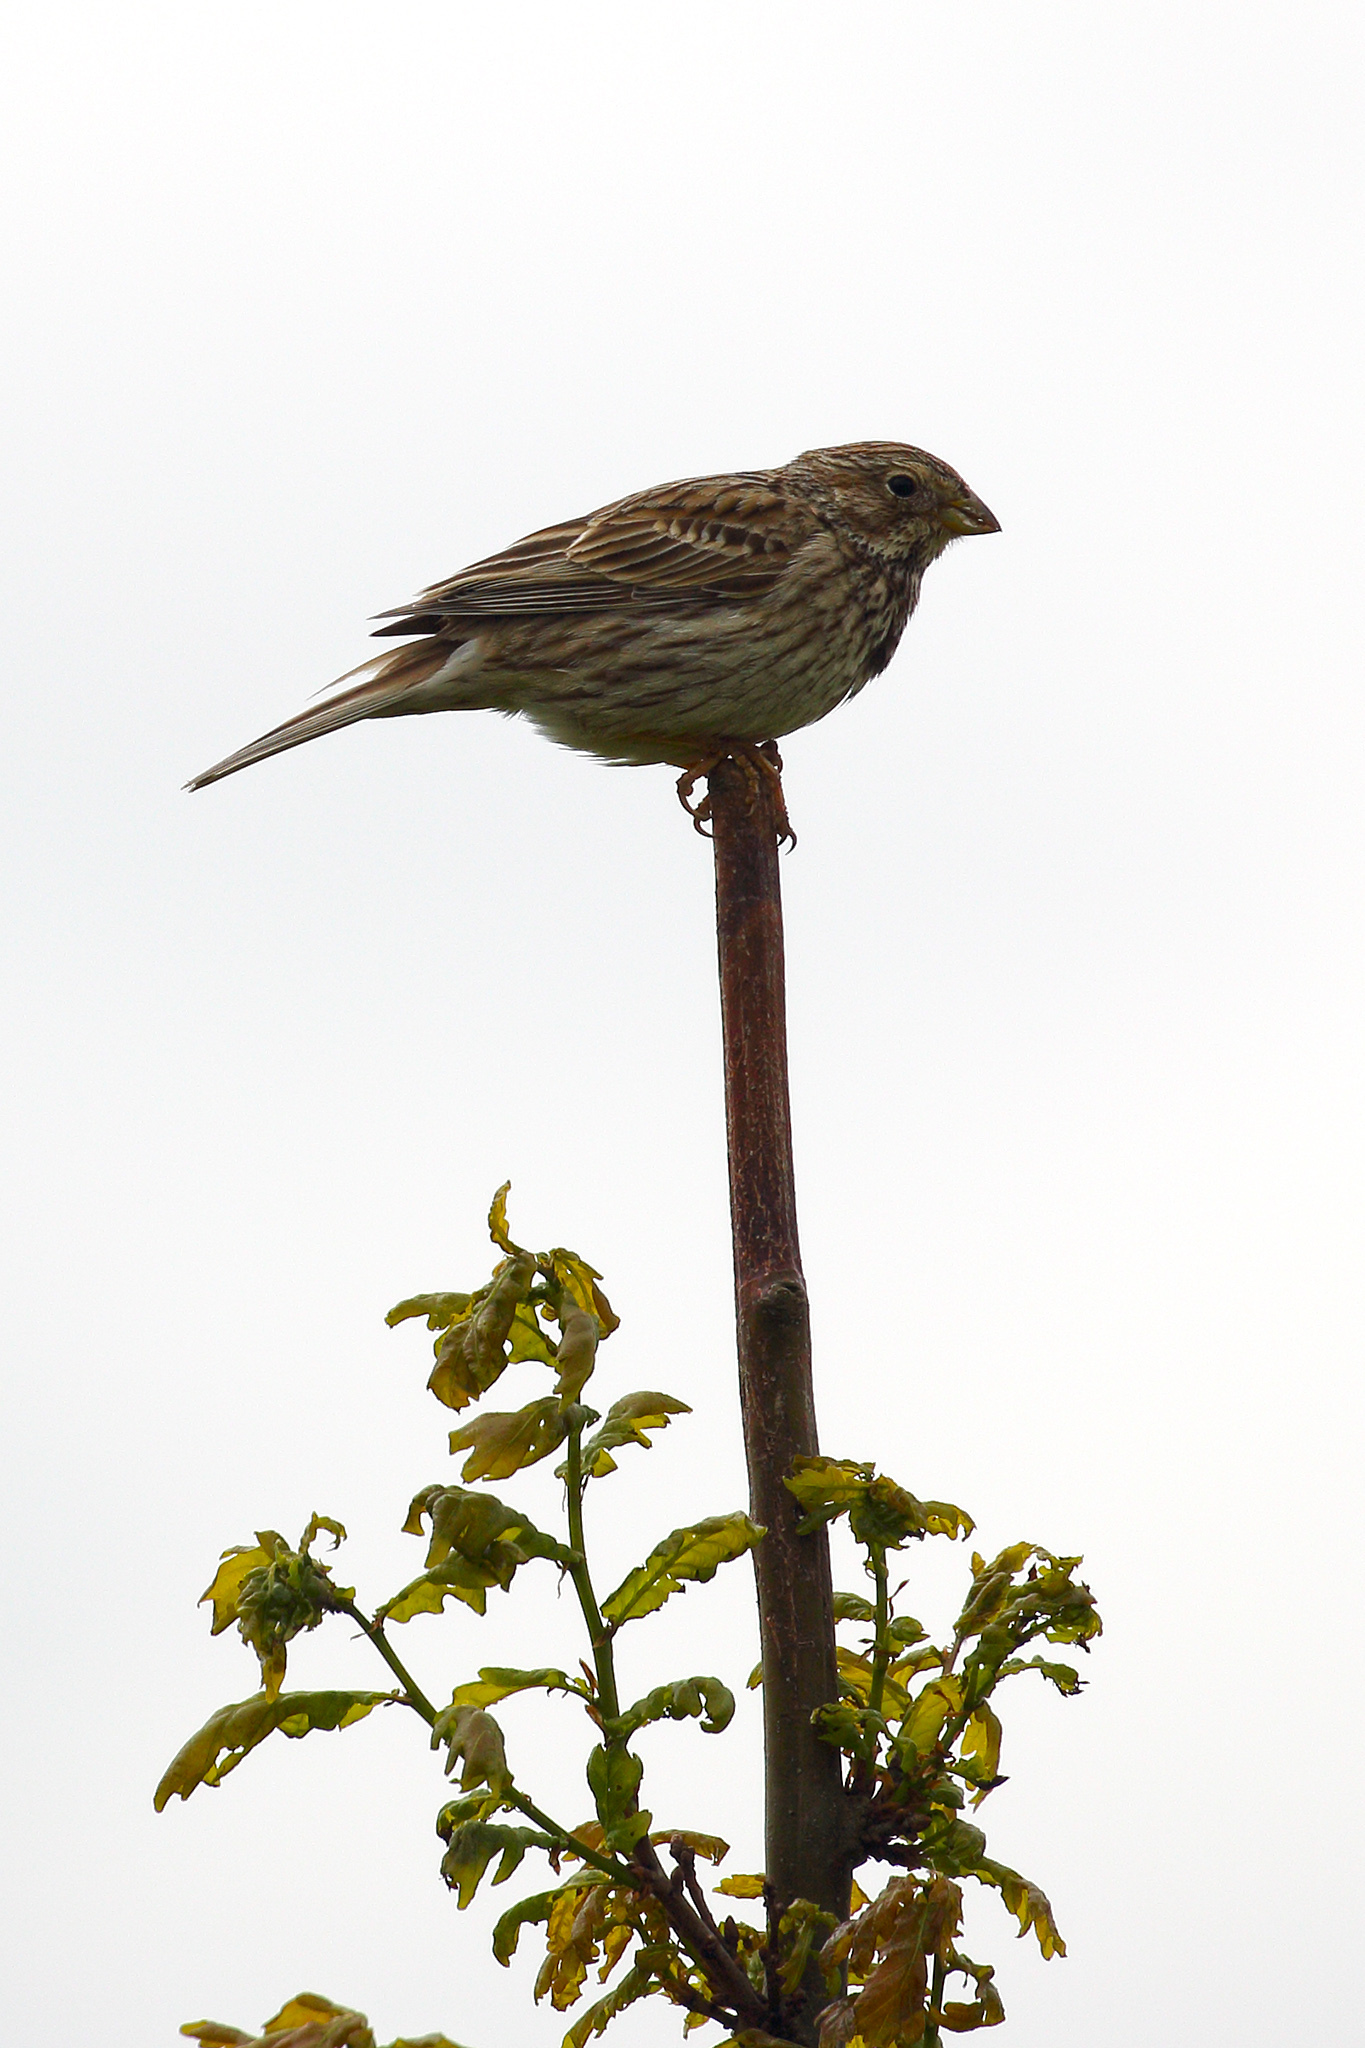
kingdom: Animalia
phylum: Chordata
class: Aves
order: Passeriformes
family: Emberizidae
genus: Emberiza
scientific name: Emberiza calandra
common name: Corn bunting
